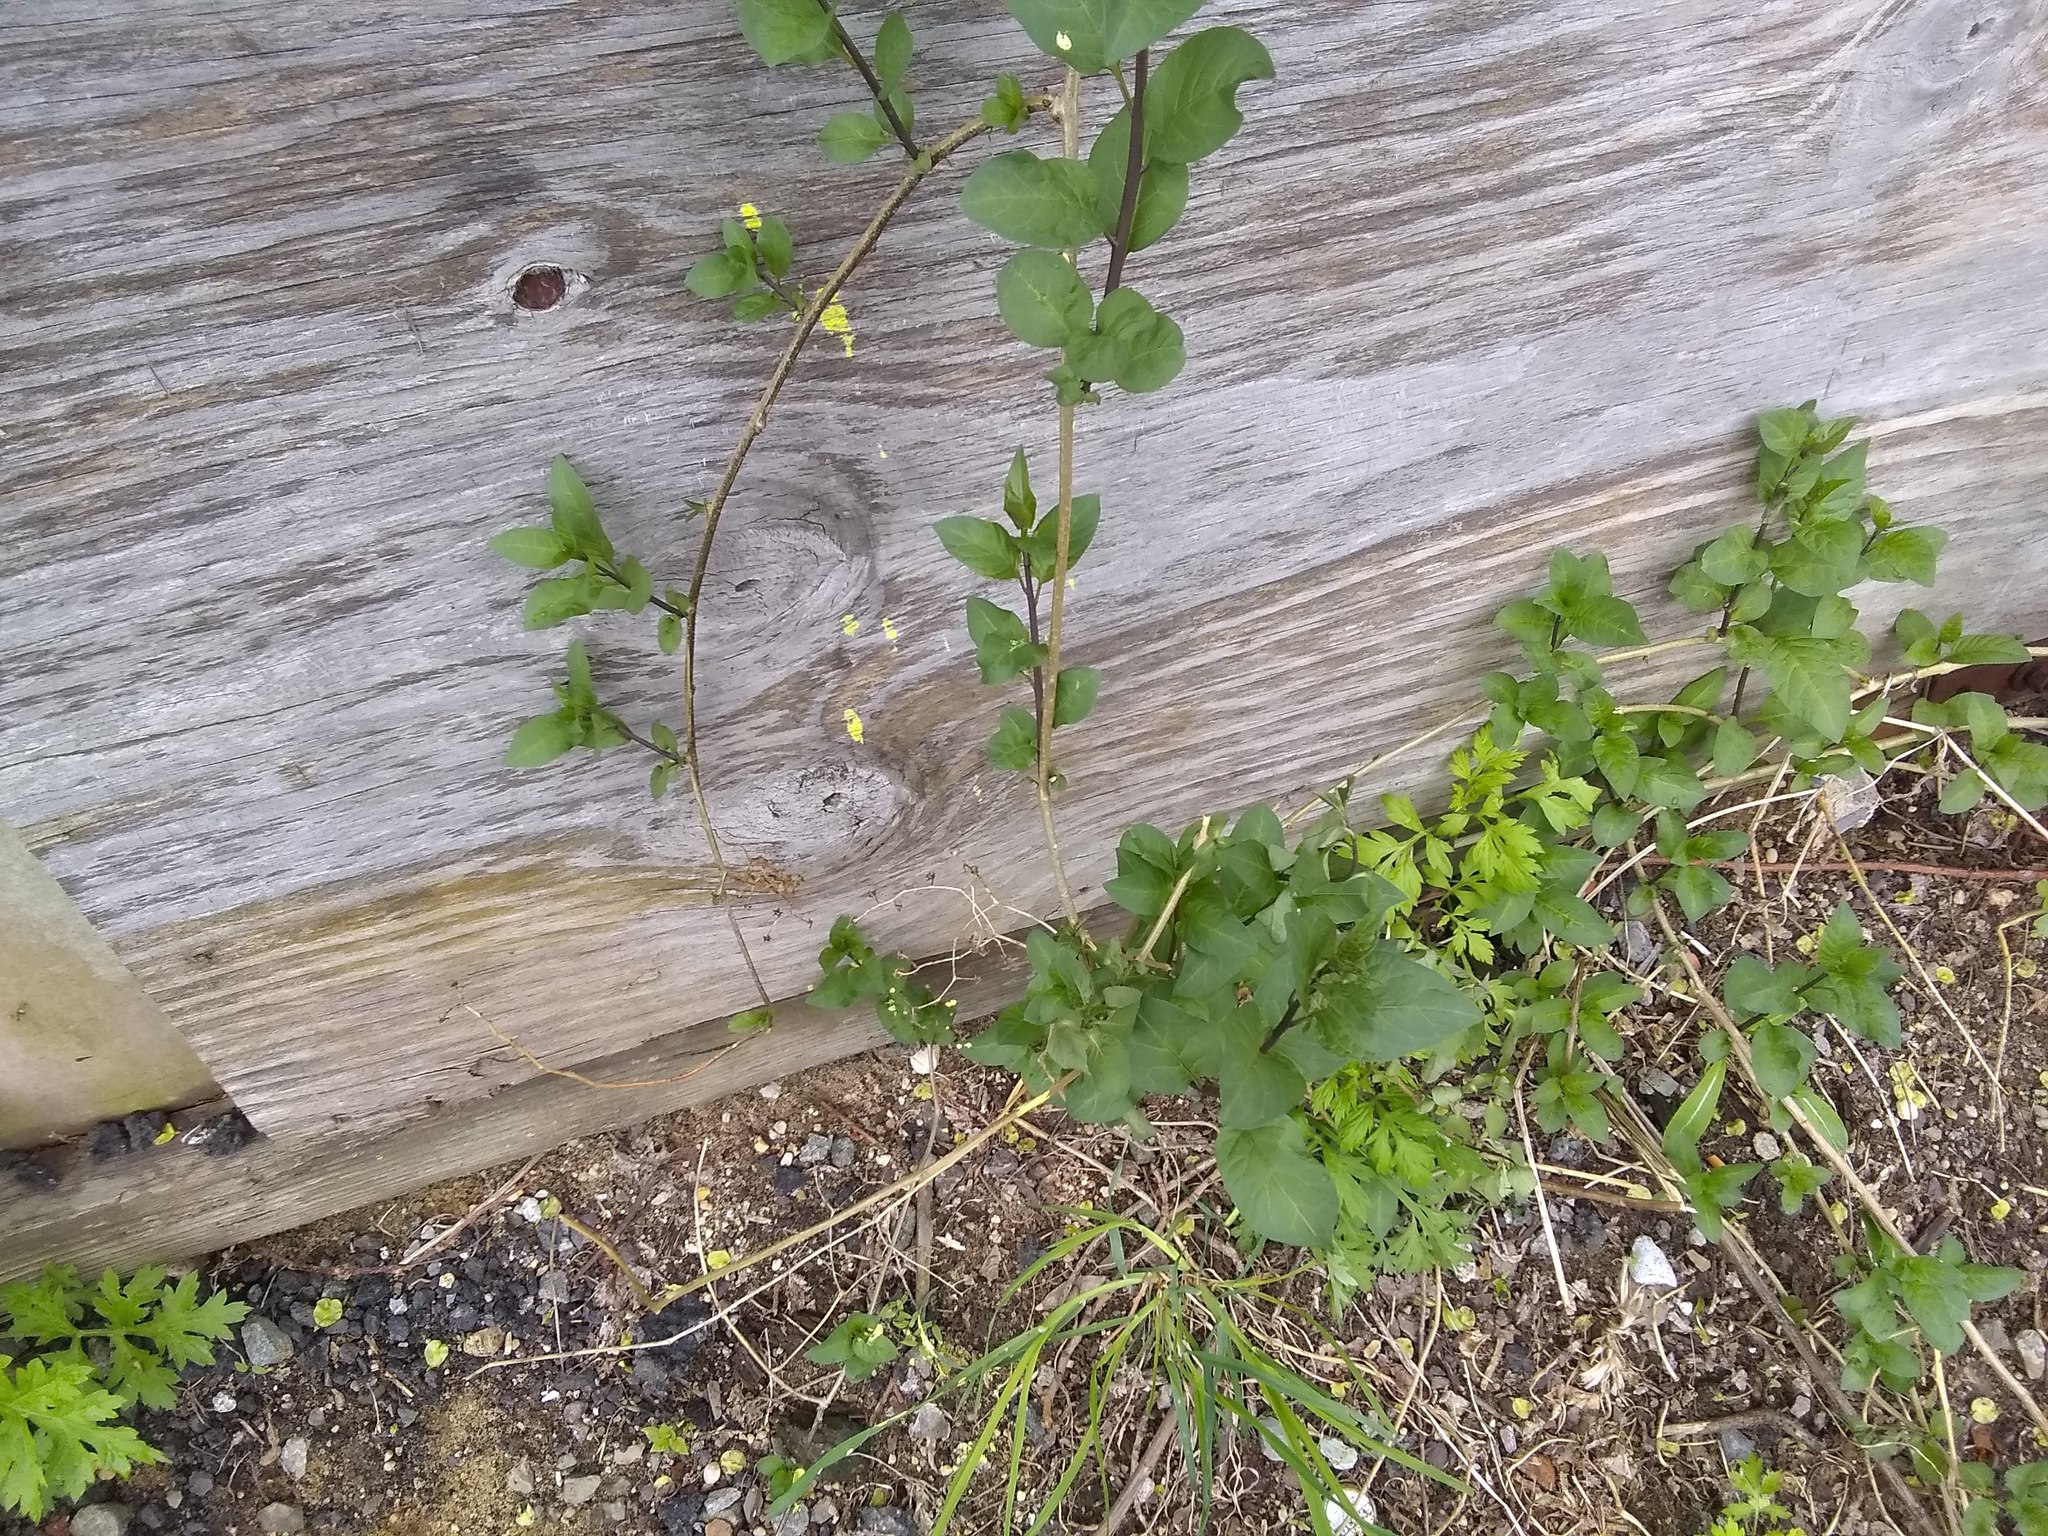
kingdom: Plantae
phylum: Tracheophyta
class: Magnoliopsida
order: Solanales
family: Solanaceae
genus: Solanum
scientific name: Solanum dulcamara
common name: Climbing nightshade
